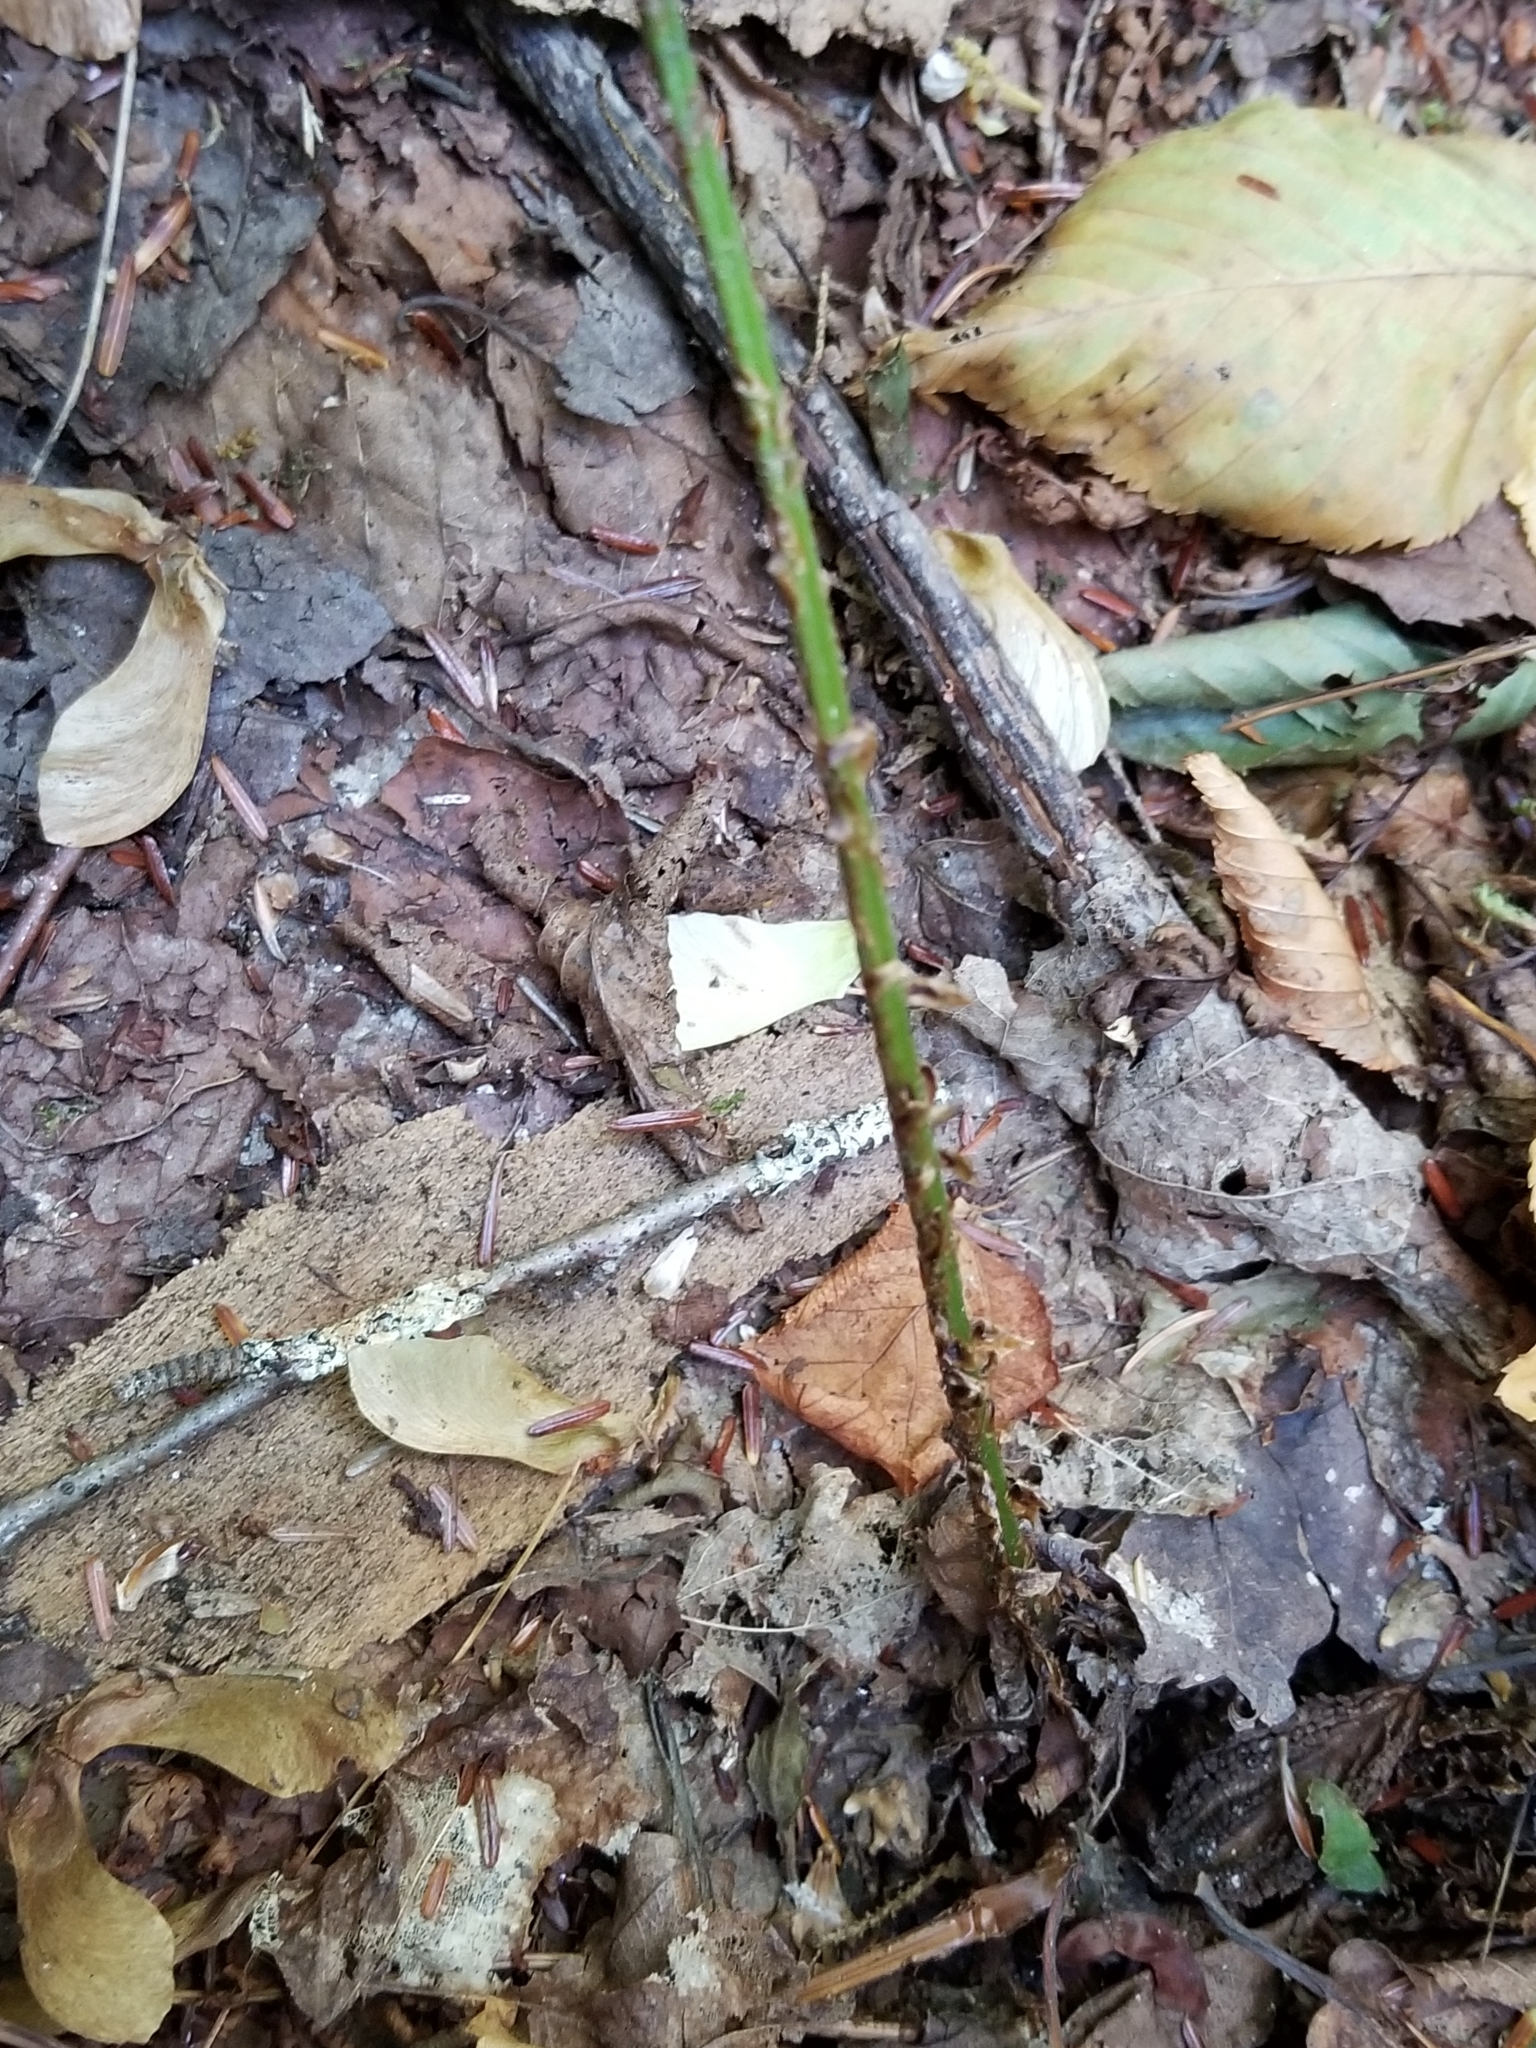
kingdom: Plantae
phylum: Tracheophyta
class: Polypodiopsida
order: Polypodiales
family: Dryopteridaceae
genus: Dryopteris
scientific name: Dryopteris campyloptera
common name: Mountain wood fern
